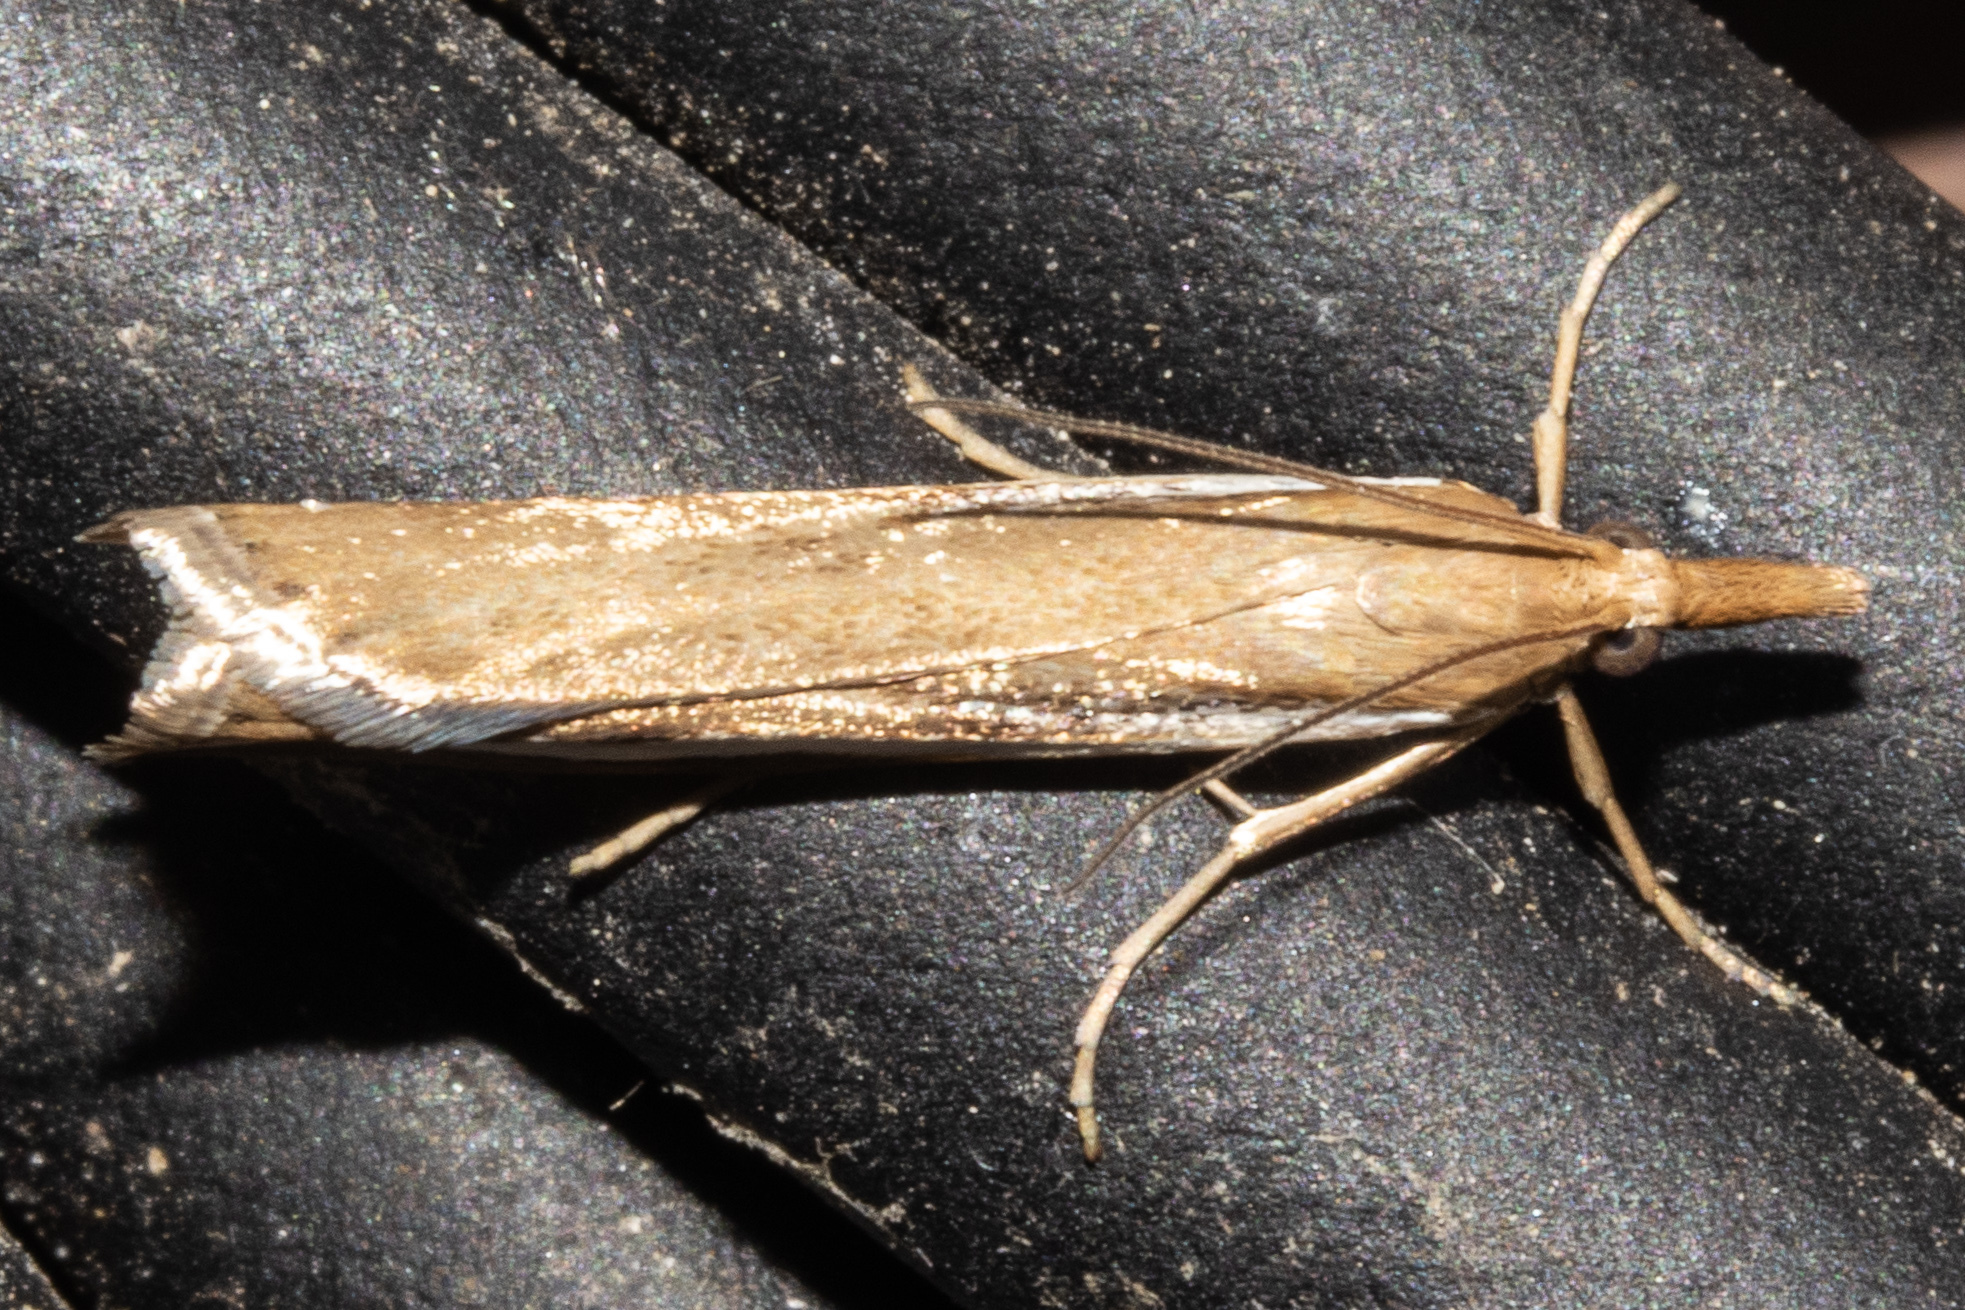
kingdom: Animalia
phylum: Arthropoda
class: Insecta
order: Lepidoptera
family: Crambidae
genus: Orocrambus
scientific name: Orocrambus flexuosellus
